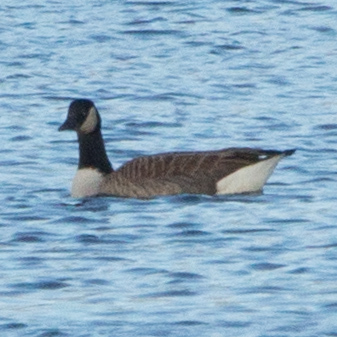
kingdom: Animalia
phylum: Chordata
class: Aves
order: Anseriformes
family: Anatidae
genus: Branta
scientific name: Branta canadensis
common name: Canada goose
